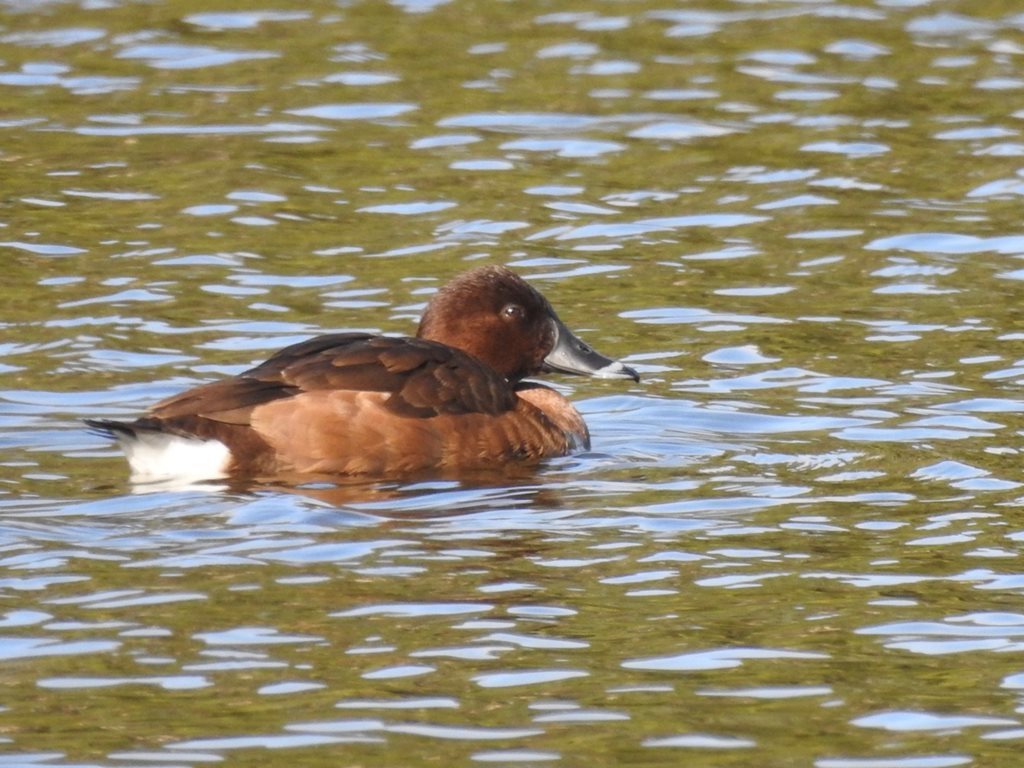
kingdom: Animalia
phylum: Chordata
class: Aves
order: Anseriformes
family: Anatidae
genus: Aythya
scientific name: Aythya australis
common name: Hardhead
